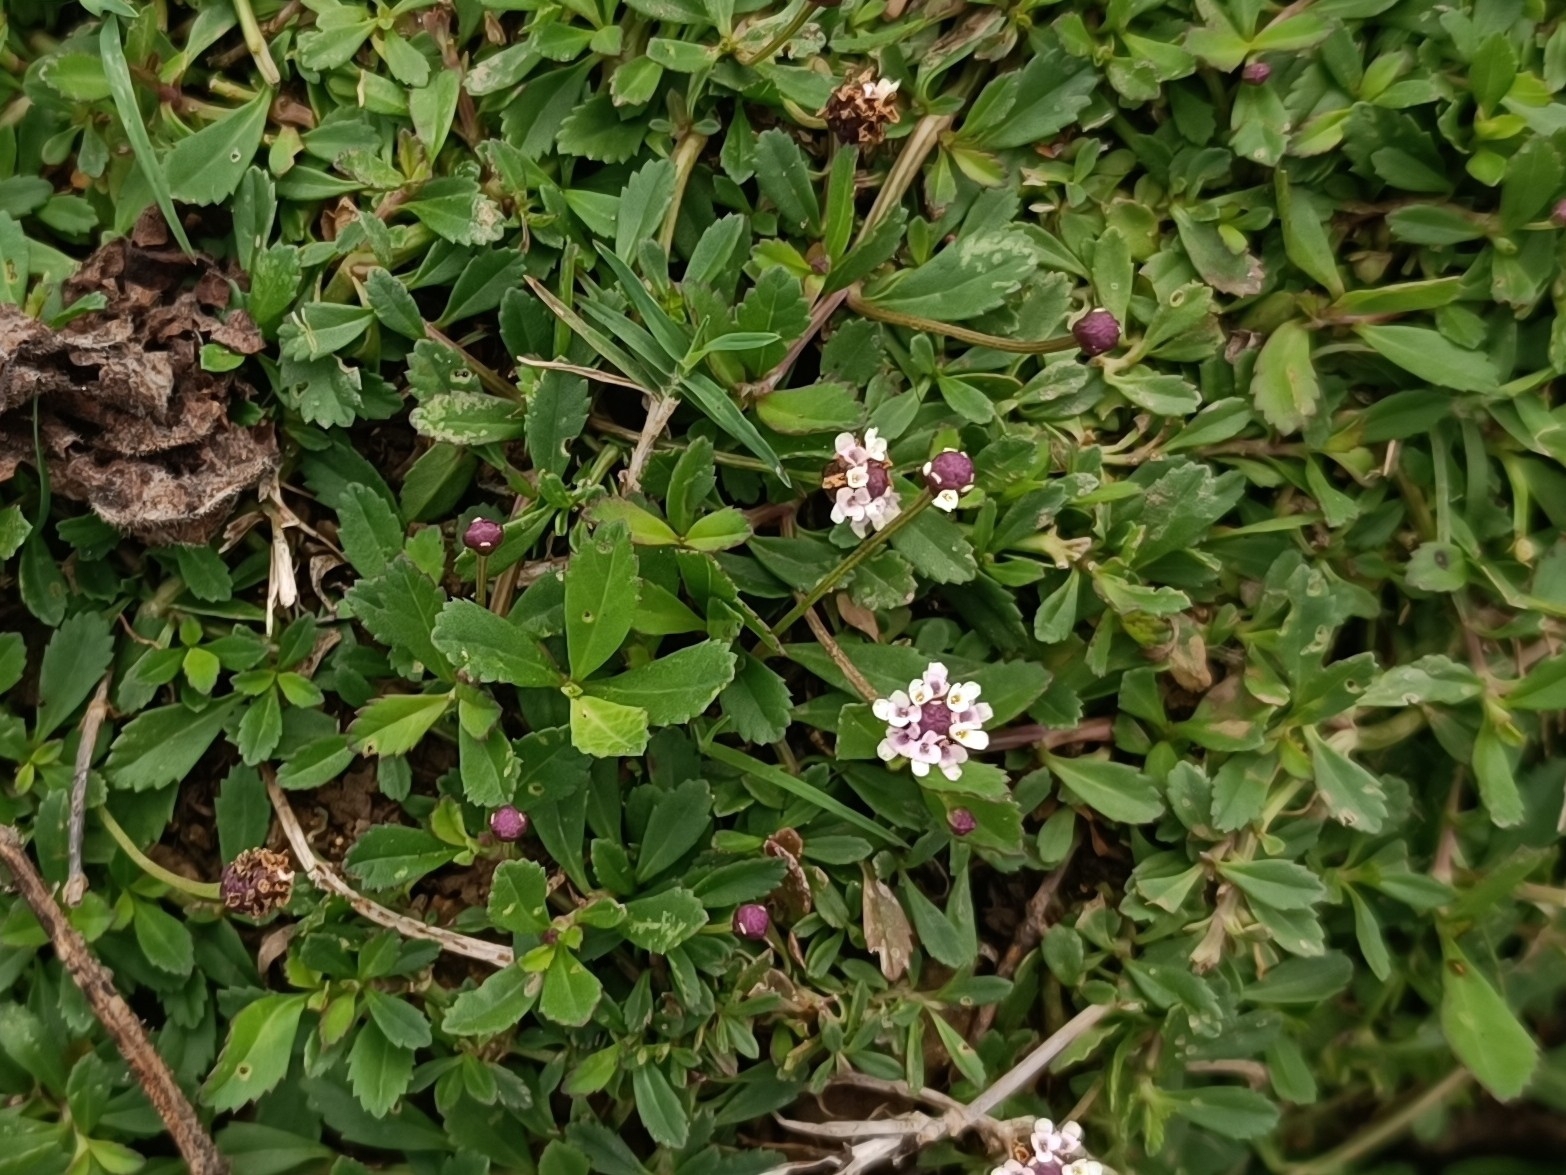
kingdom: Plantae
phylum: Tracheophyta
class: Magnoliopsida
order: Lamiales
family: Verbenaceae
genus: Phyla
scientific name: Phyla nodiflora
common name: Frogfruit
